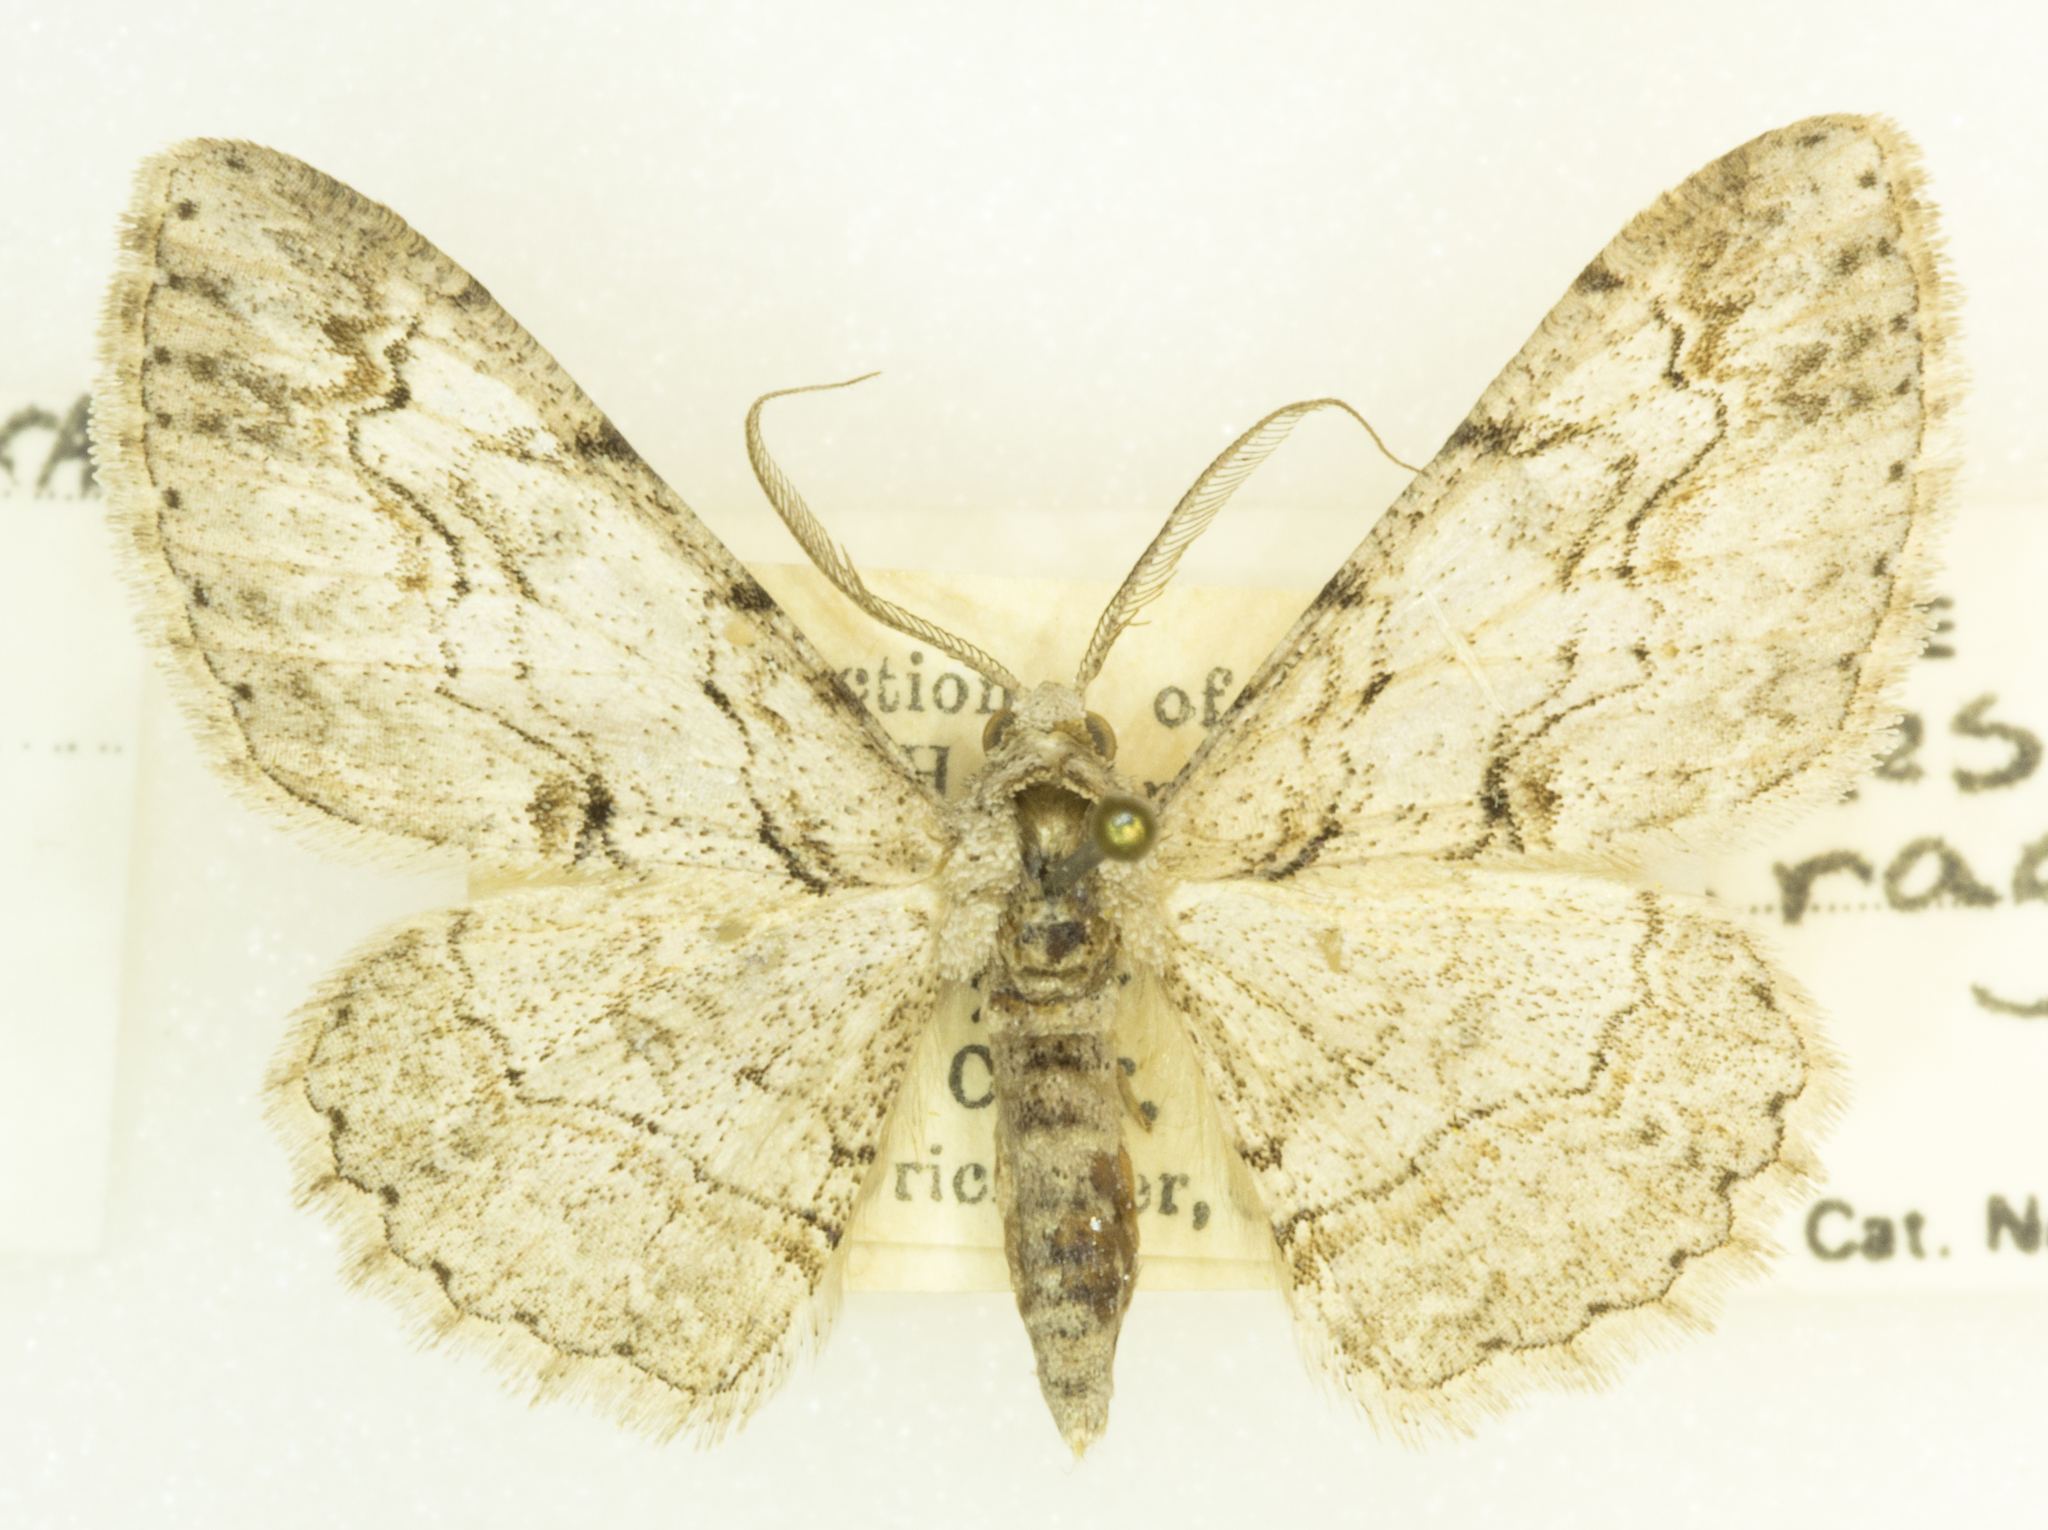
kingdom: Animalia
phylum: Arthropoda
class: Insecta
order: Lepidoptera
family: Geometridae
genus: Iridopsis
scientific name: Iridopsis fragilaria
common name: Moth
